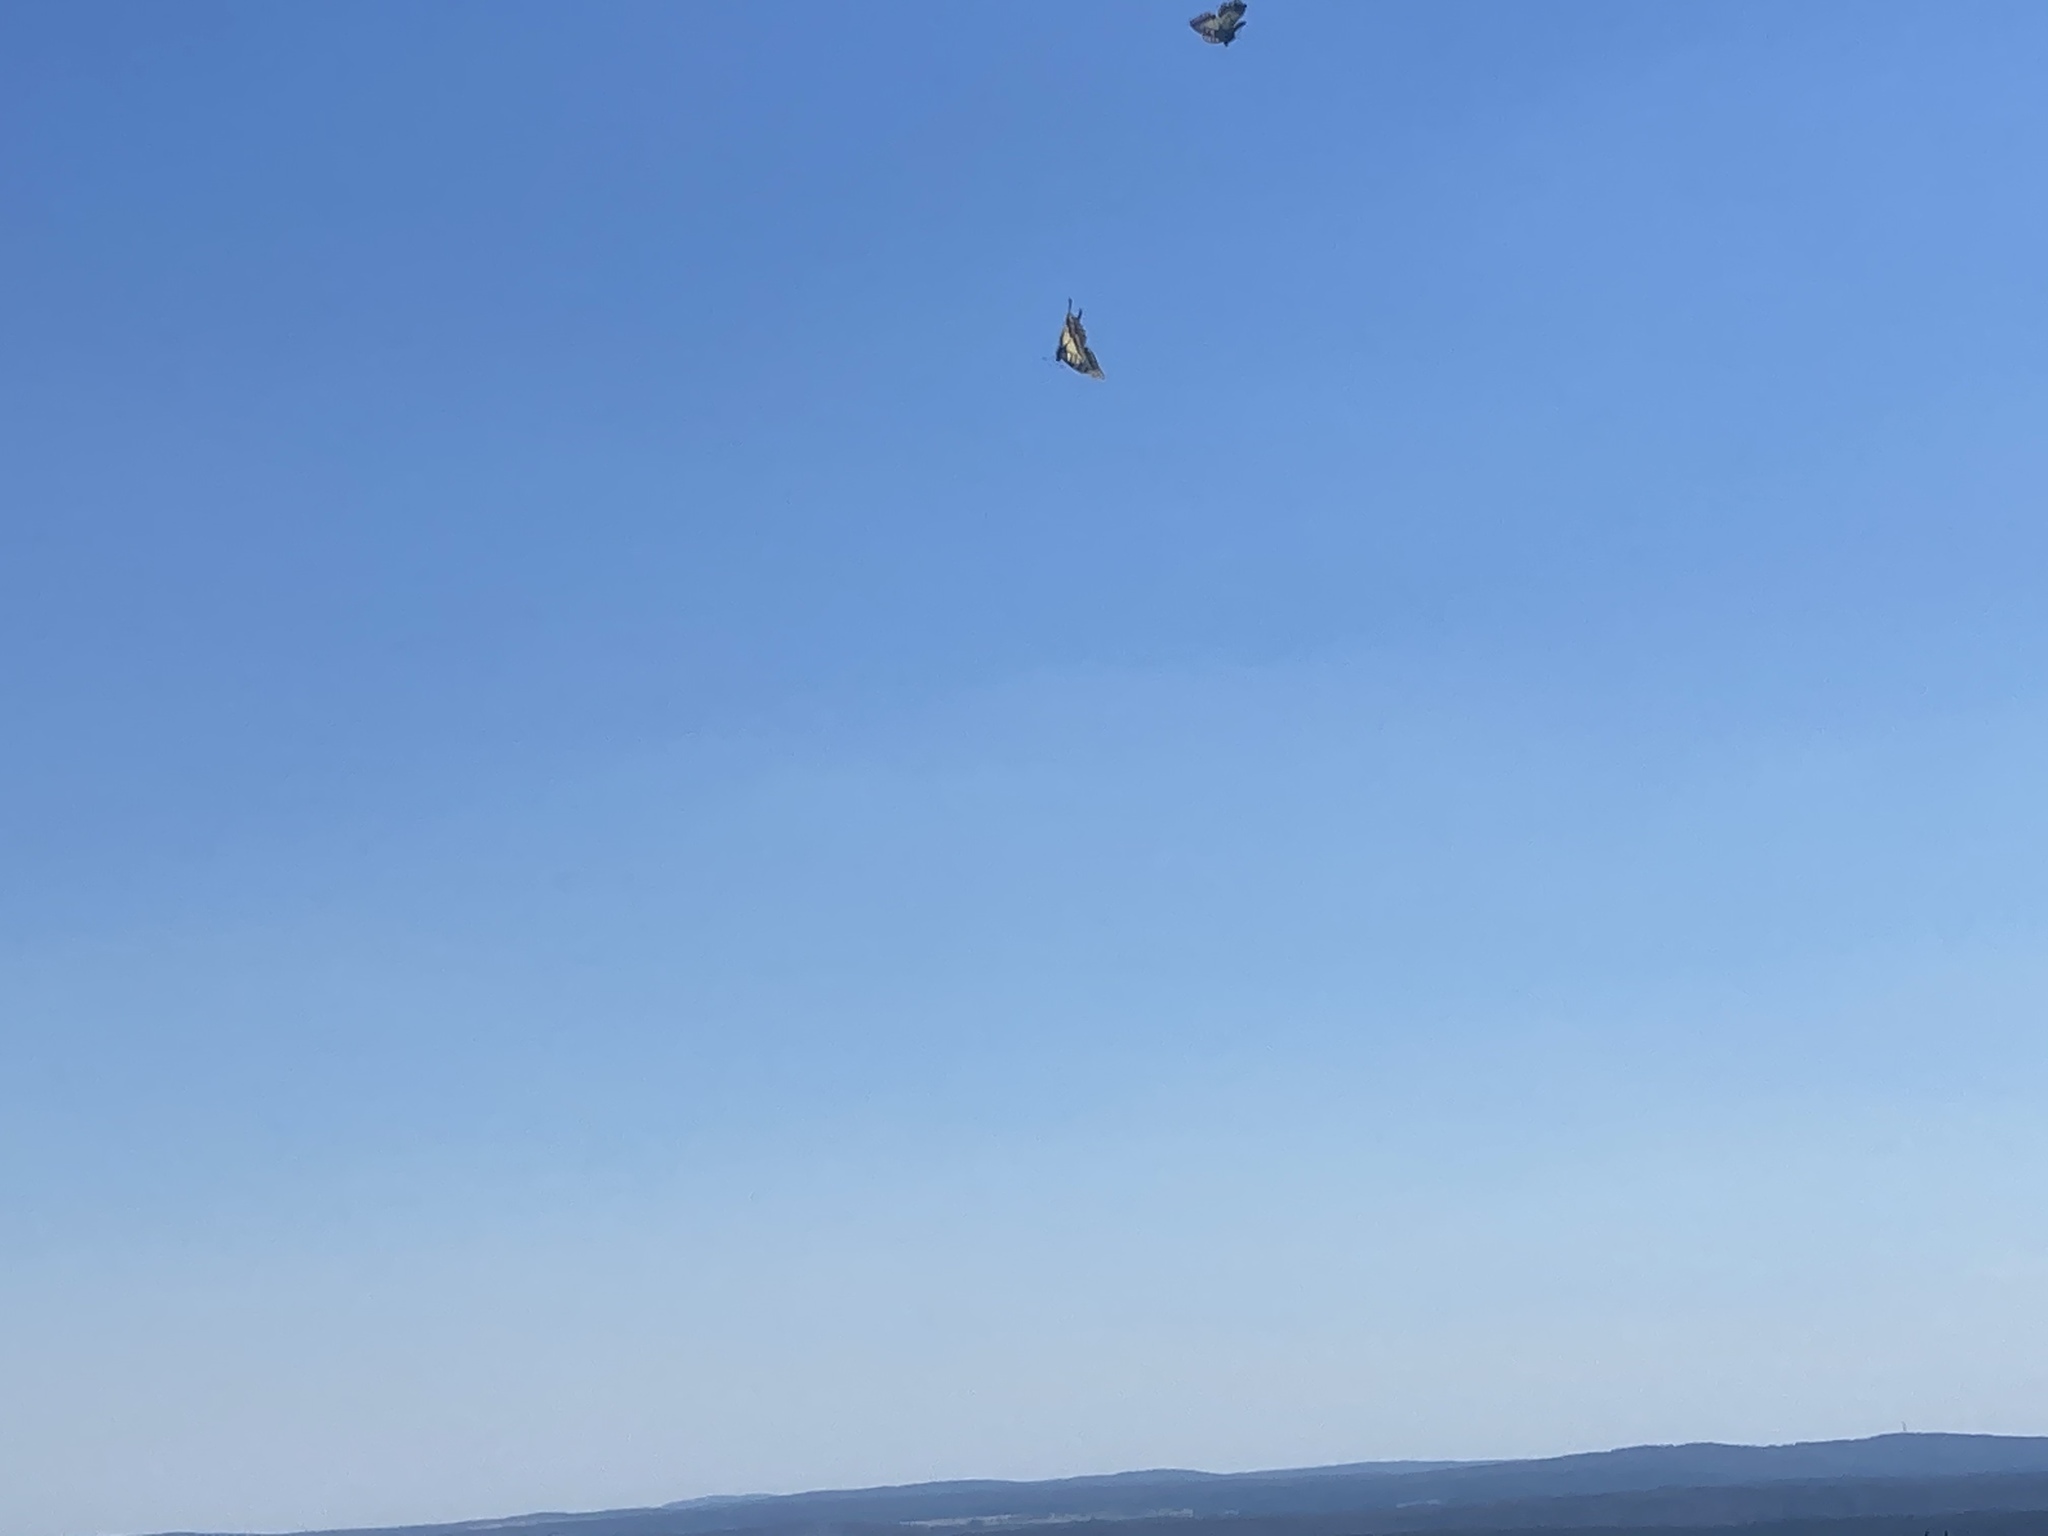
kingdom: Animalia
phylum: Arthropoda
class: Insecta
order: Lepidoptera
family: Papilionidae
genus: Papilio
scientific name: Papilio machaon
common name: Swallowtail
